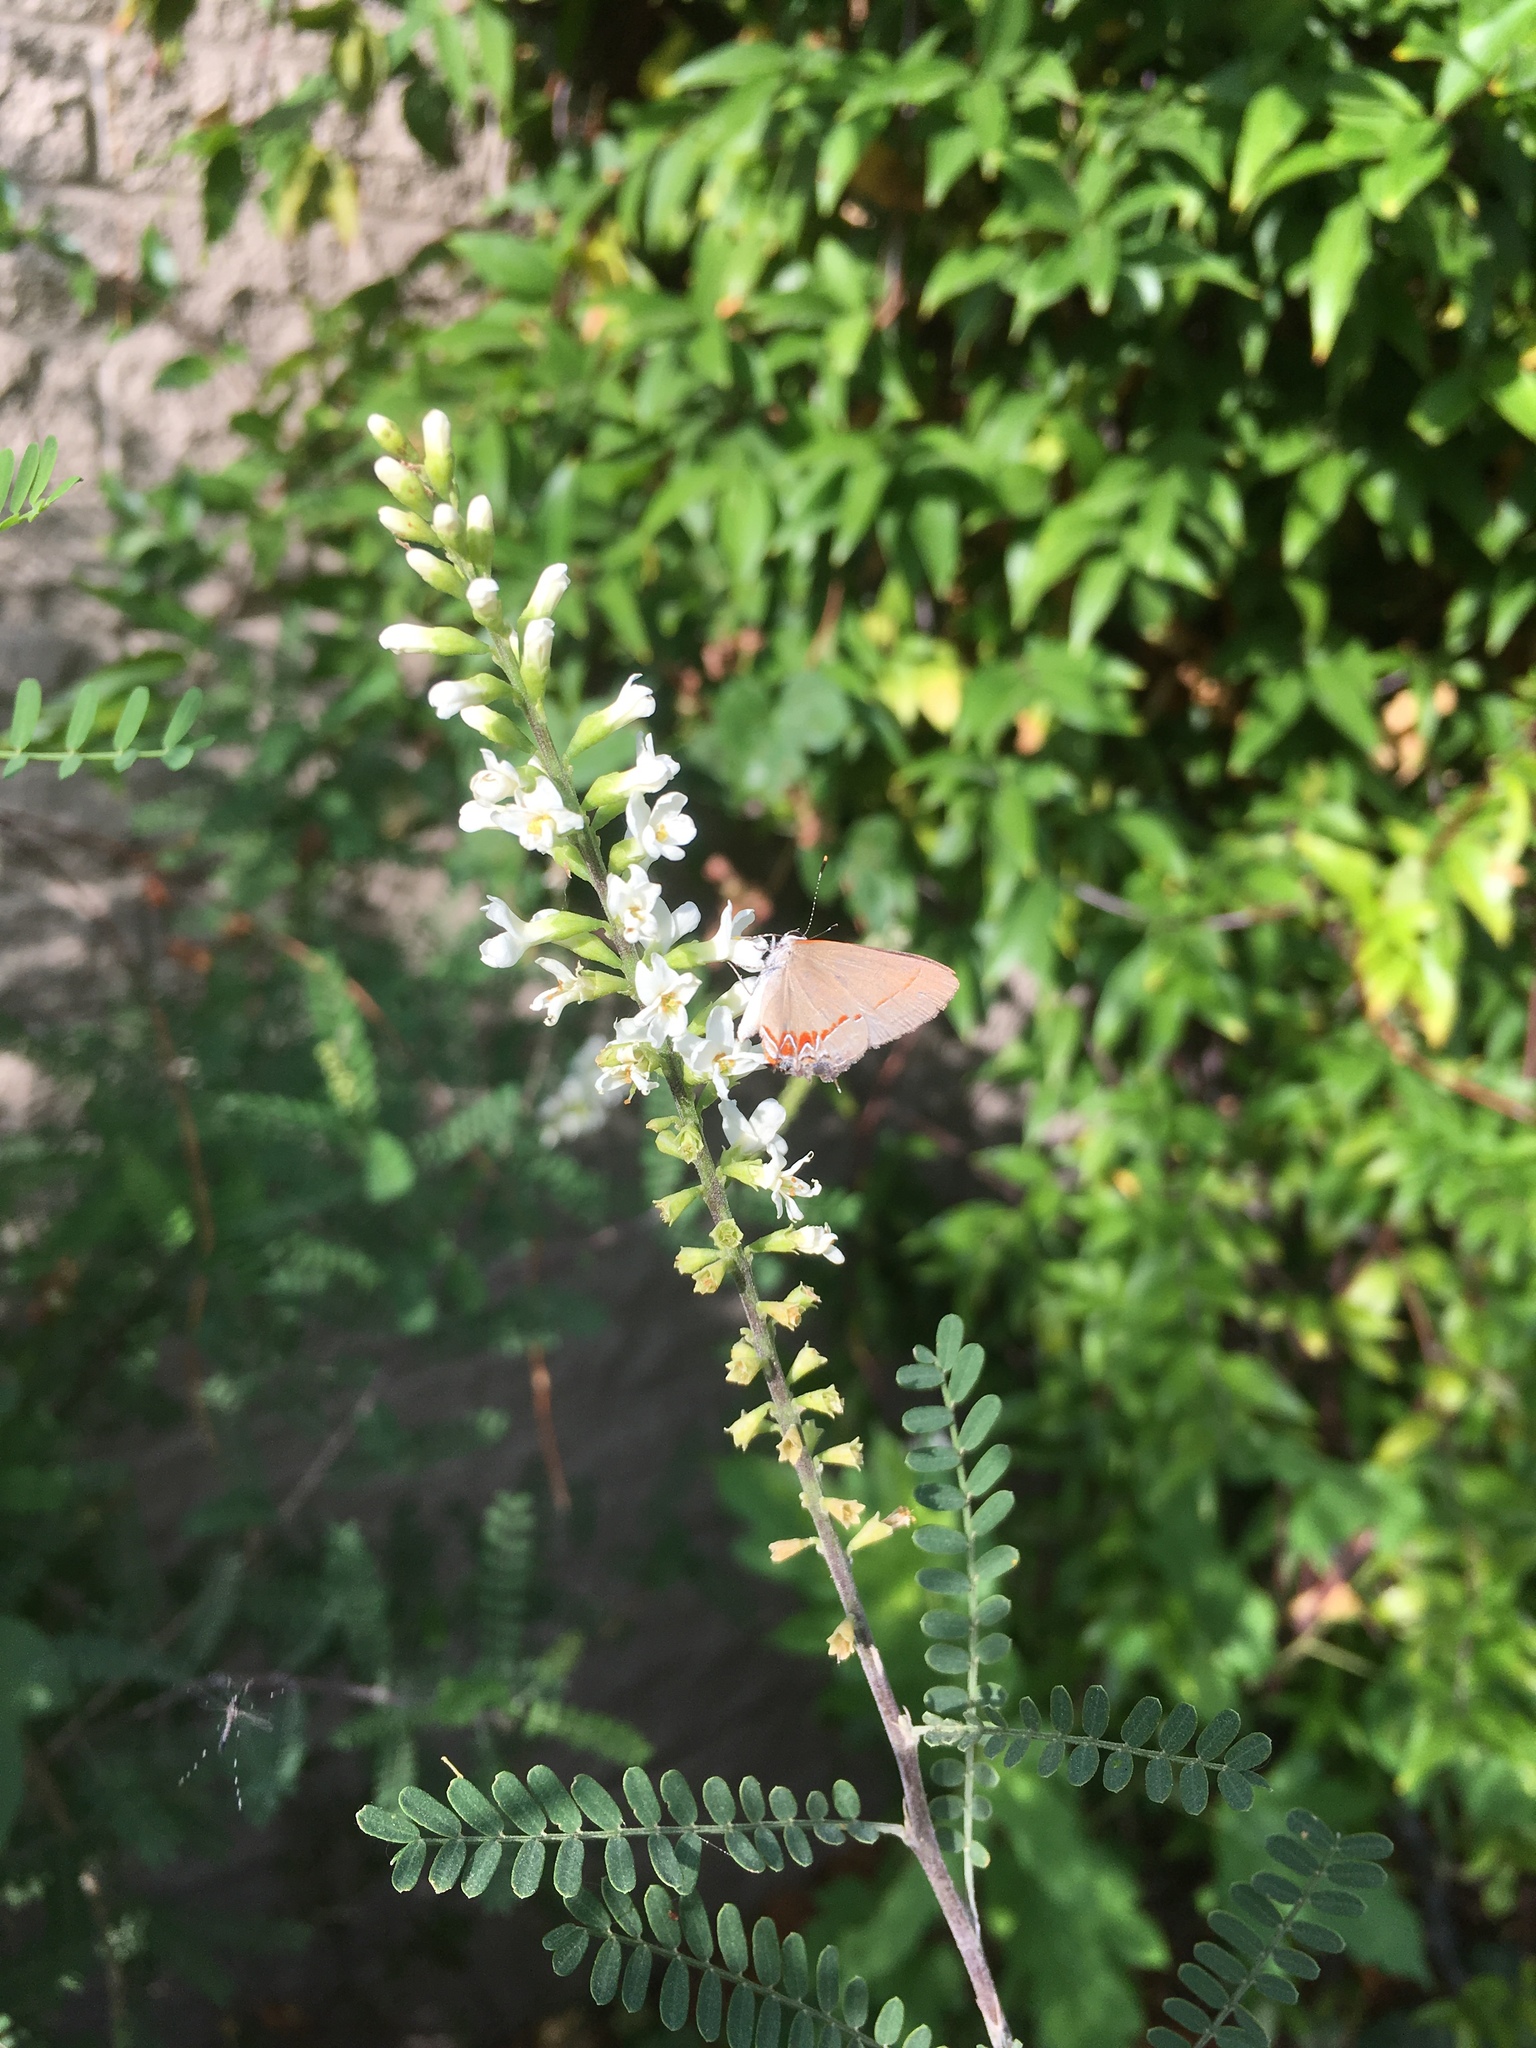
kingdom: Animalia
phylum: Arthropoda
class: Insecta
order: Lepidoptera
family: Lycaenidae
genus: Calycopis
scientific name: Calycopis isobeon
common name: Dusky-blue groundstreak
